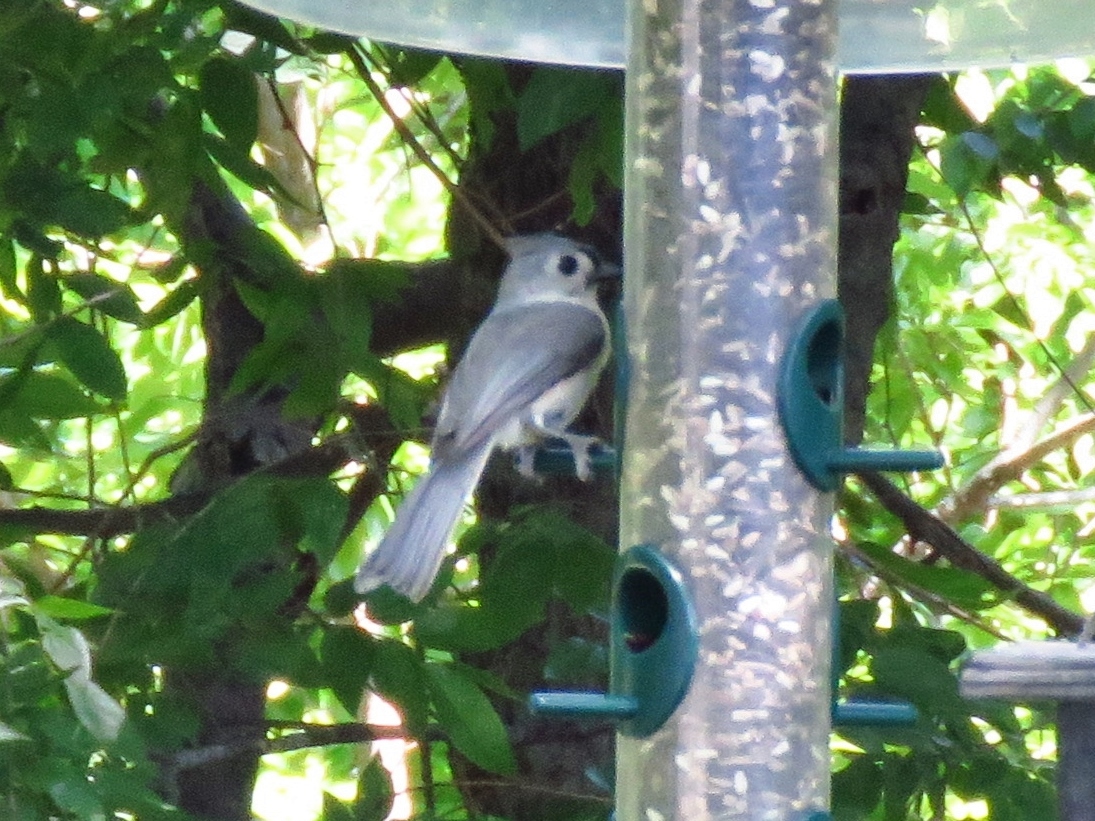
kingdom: Animalia
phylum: Chordata
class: Aves
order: Passeriformes
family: Paridae
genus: Baeolophus
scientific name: Baeolophus bicolor
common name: Tufted titmouse
